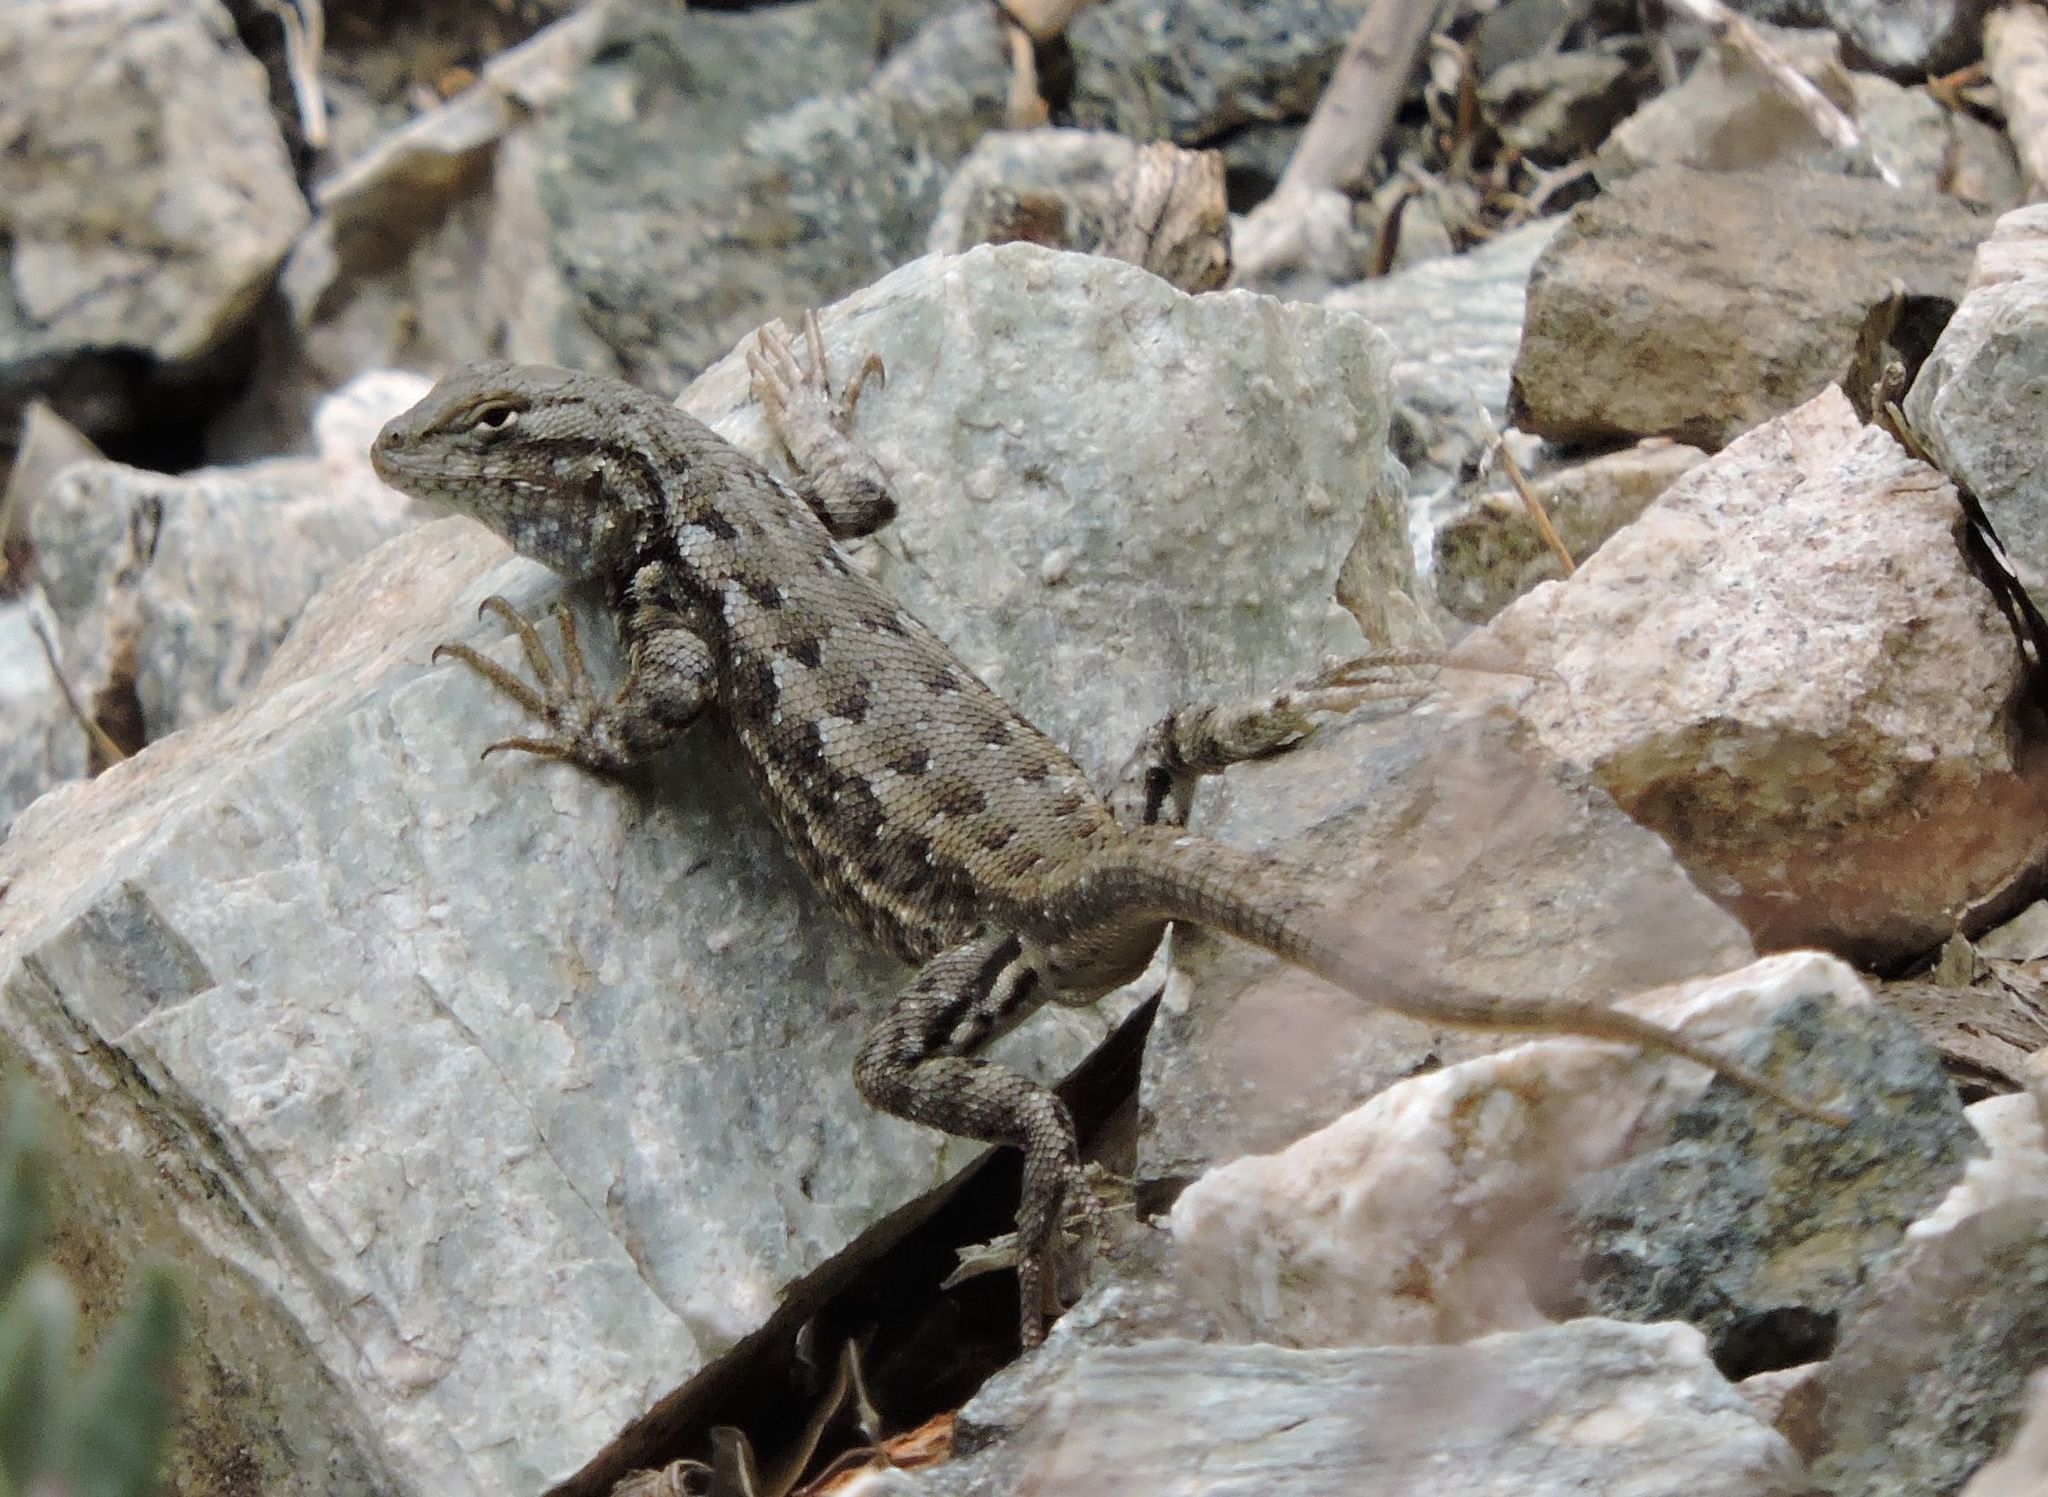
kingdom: Animalia
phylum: Chordata
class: Squamata
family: Phrynosomatidae
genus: Sceloporus
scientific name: Sceloporus graciosus
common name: Sagebrush lizard
